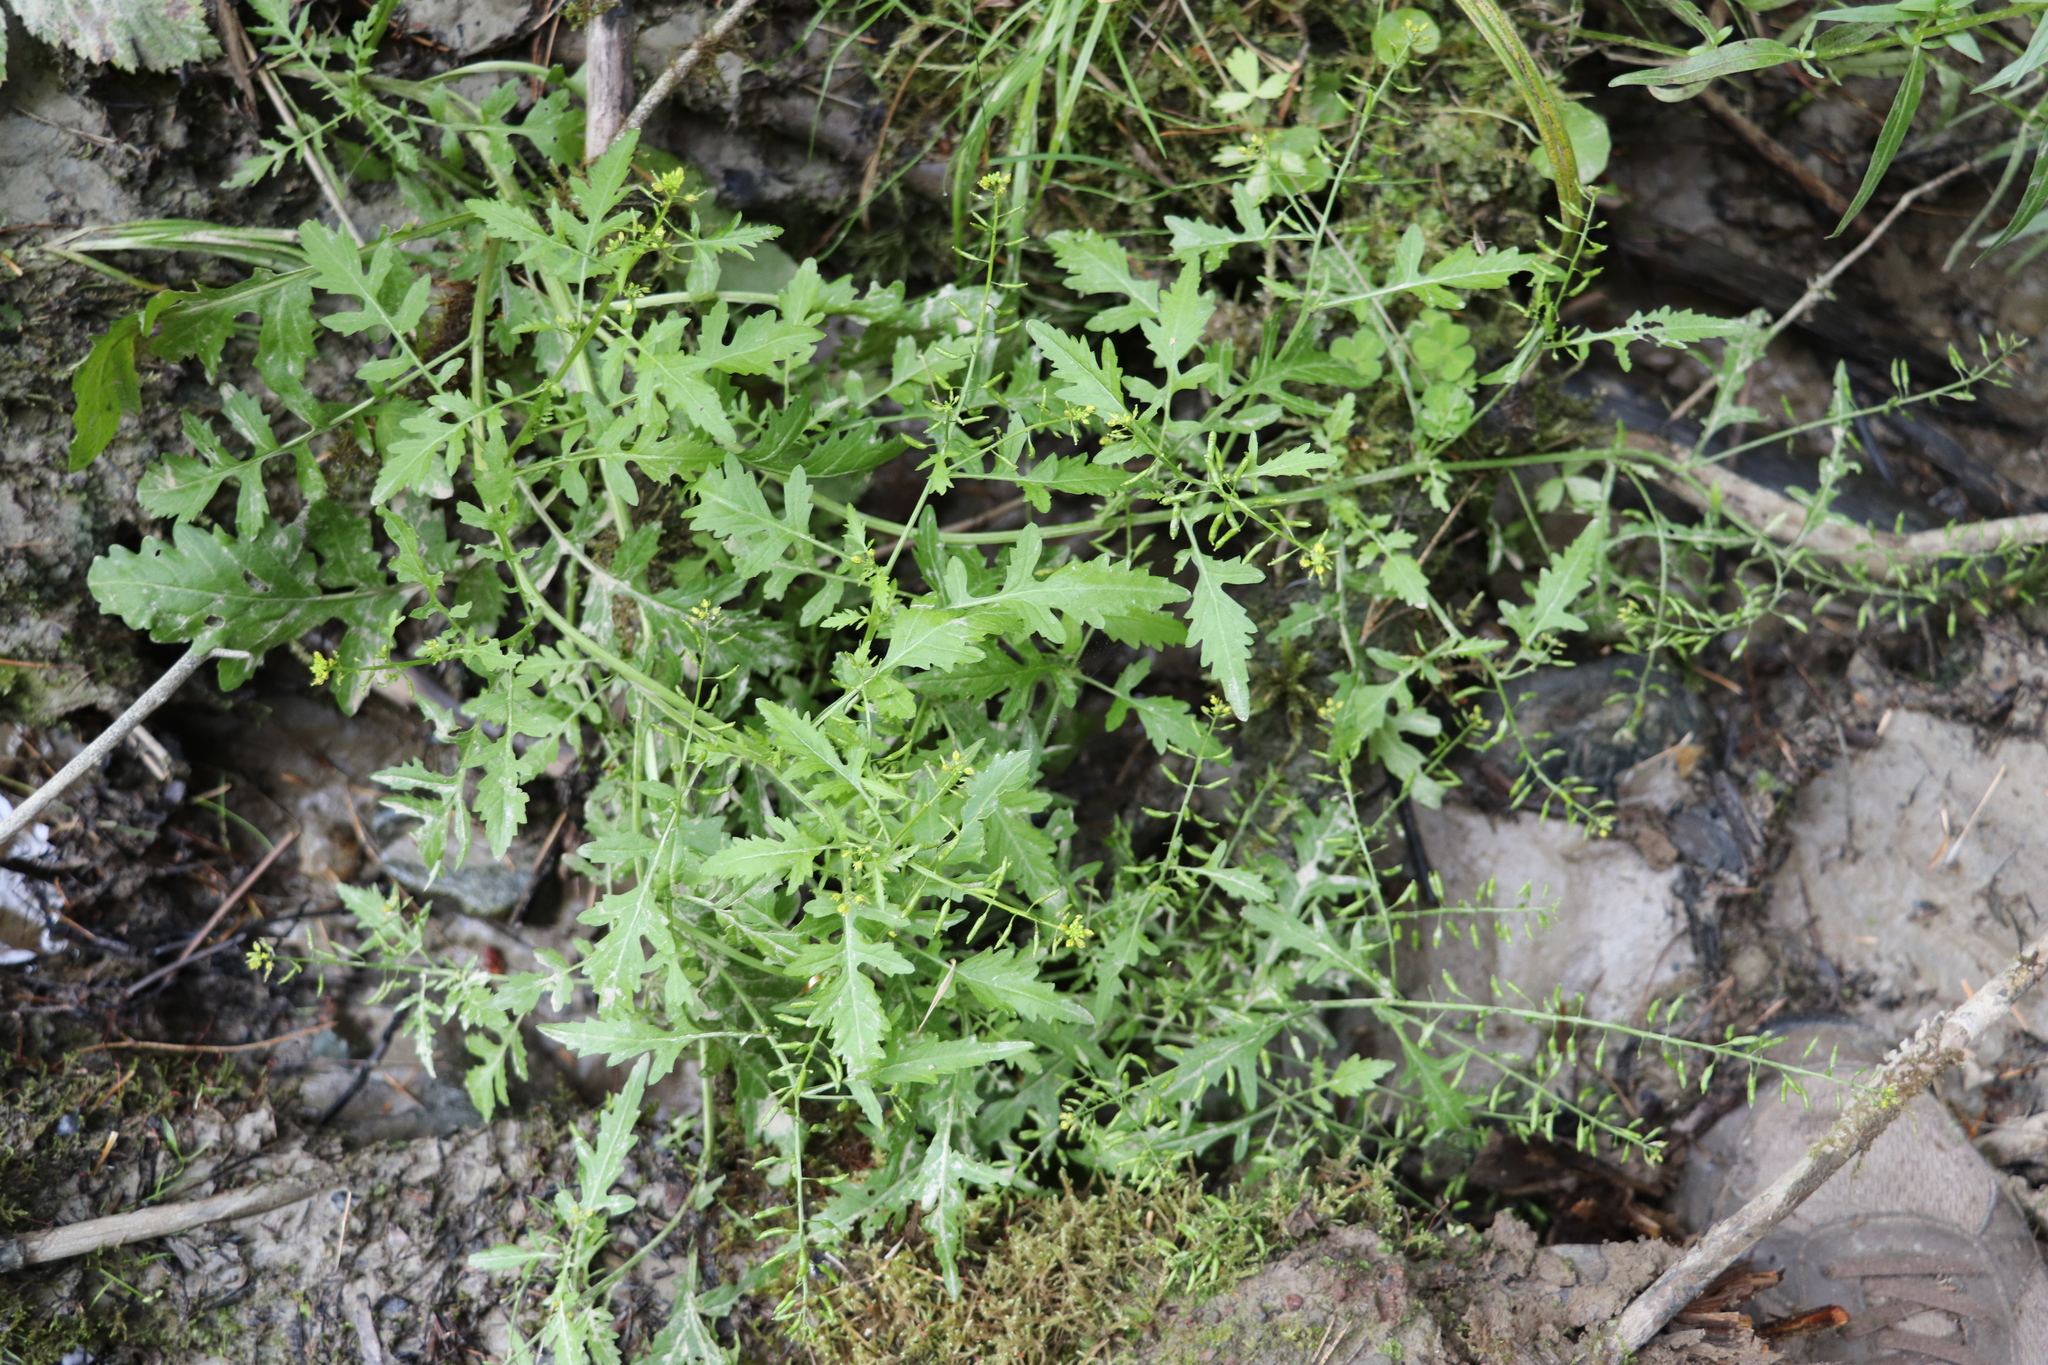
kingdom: Plantae
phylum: Tracheophyta
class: Magnoliopsida
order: Brassicales
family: Brassicaceae
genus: Rorippa
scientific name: Rorippa palustris
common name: Marsh yellow-cress
